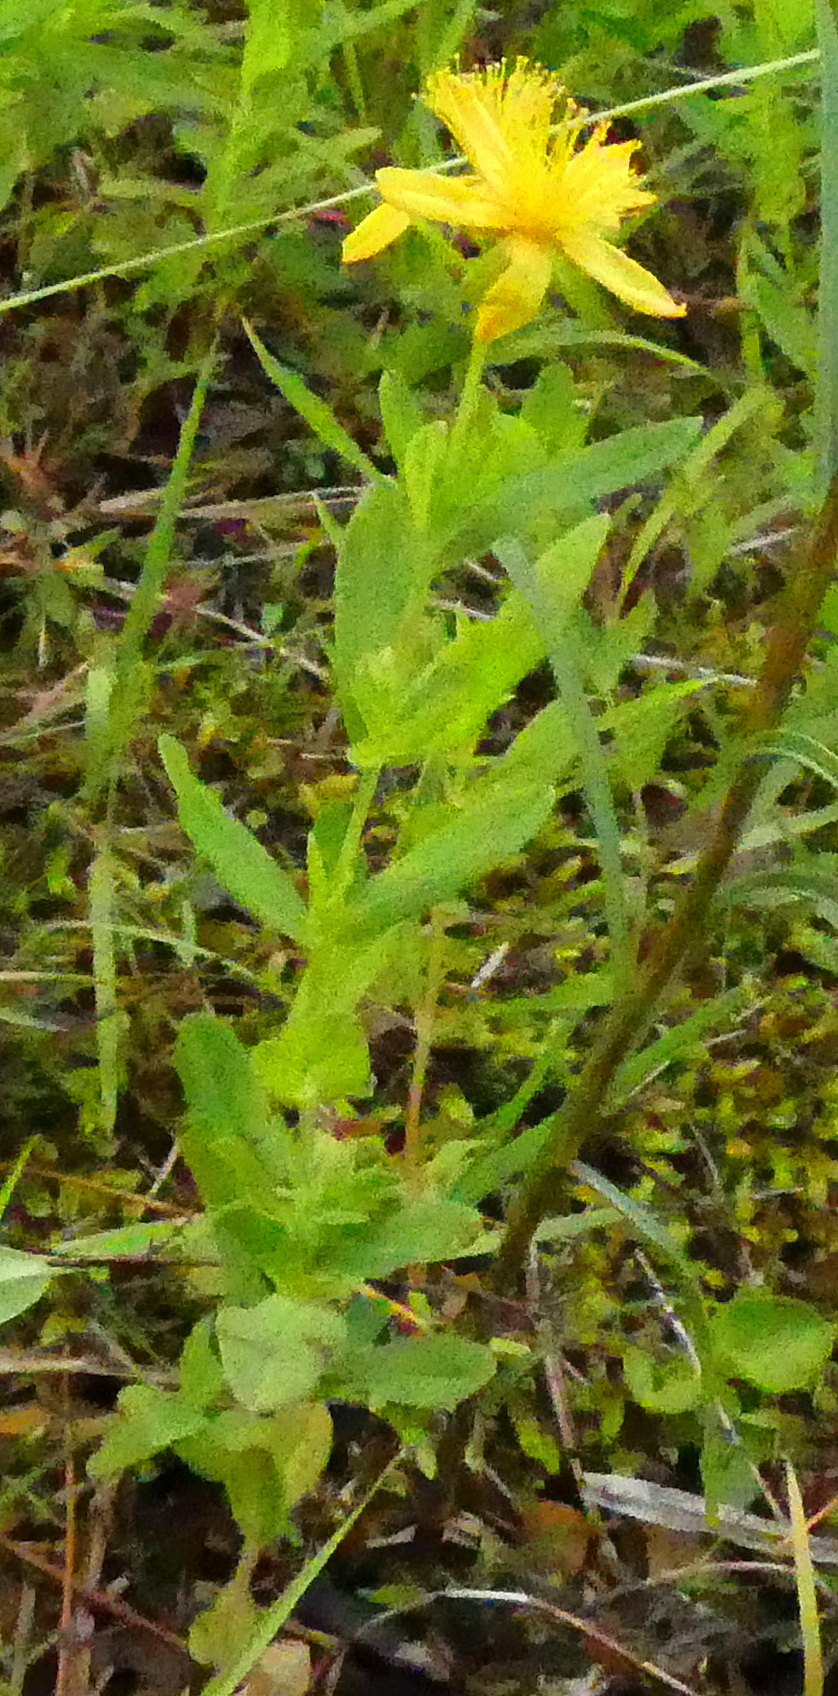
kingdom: Plantae
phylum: Tracheophyta
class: Magnoliopsida
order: Malpighiales
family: Hypericaceae
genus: Hypericum
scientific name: Hypericum ellipticum
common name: Elliptic st. john's-wort
